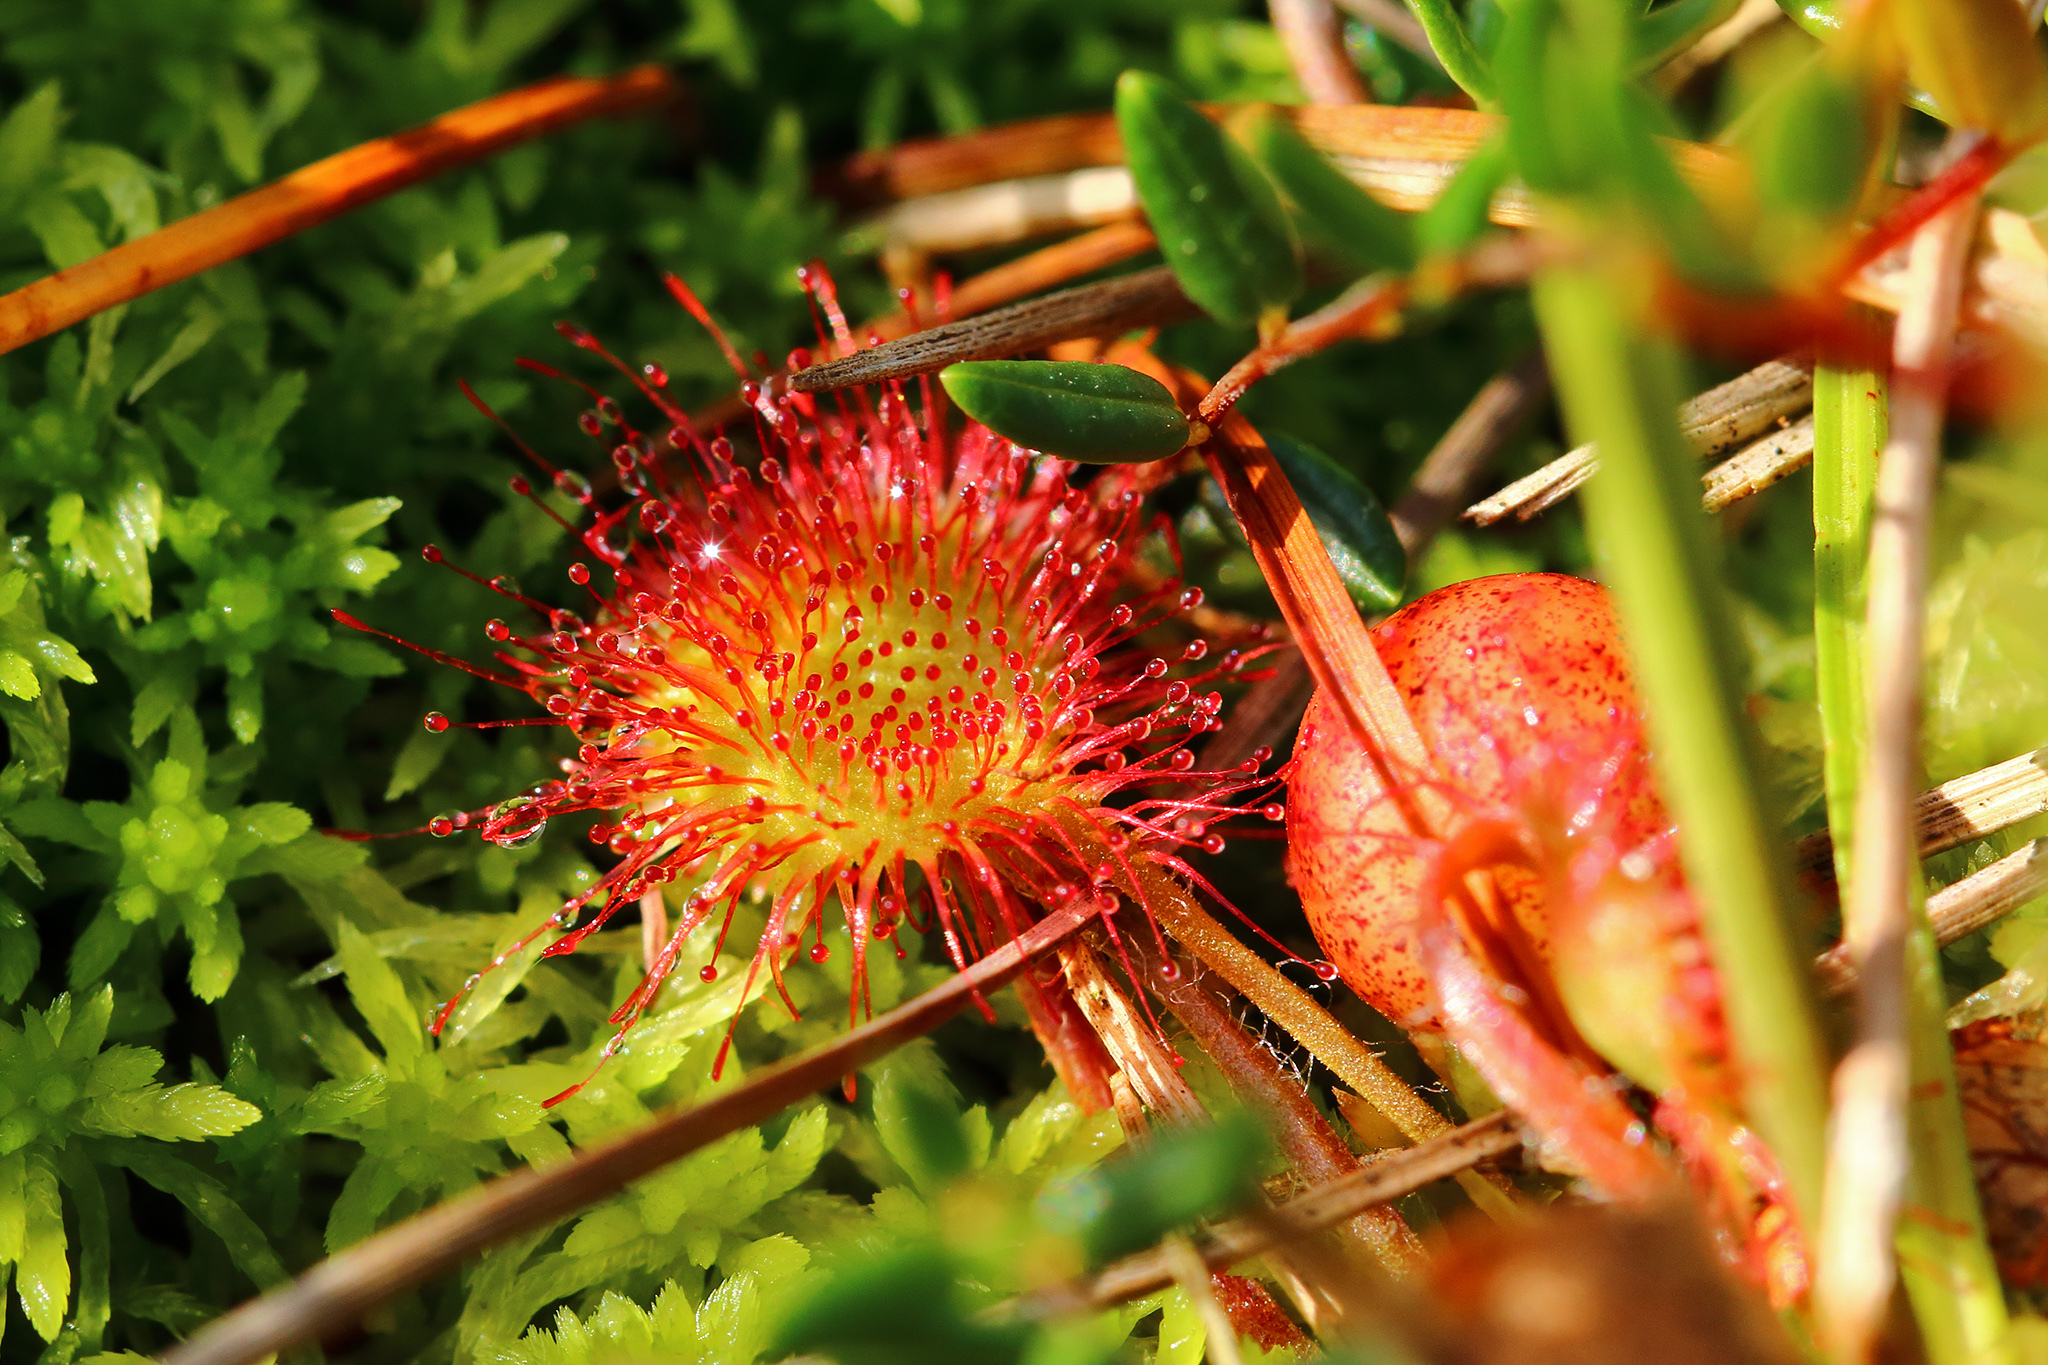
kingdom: Plantae
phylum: Tracheophyta
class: Magnoliopsida
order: Caryophyllales
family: Droseraceae
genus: Drosera
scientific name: Drosera rotundifolia
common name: Round-leaved sundew
